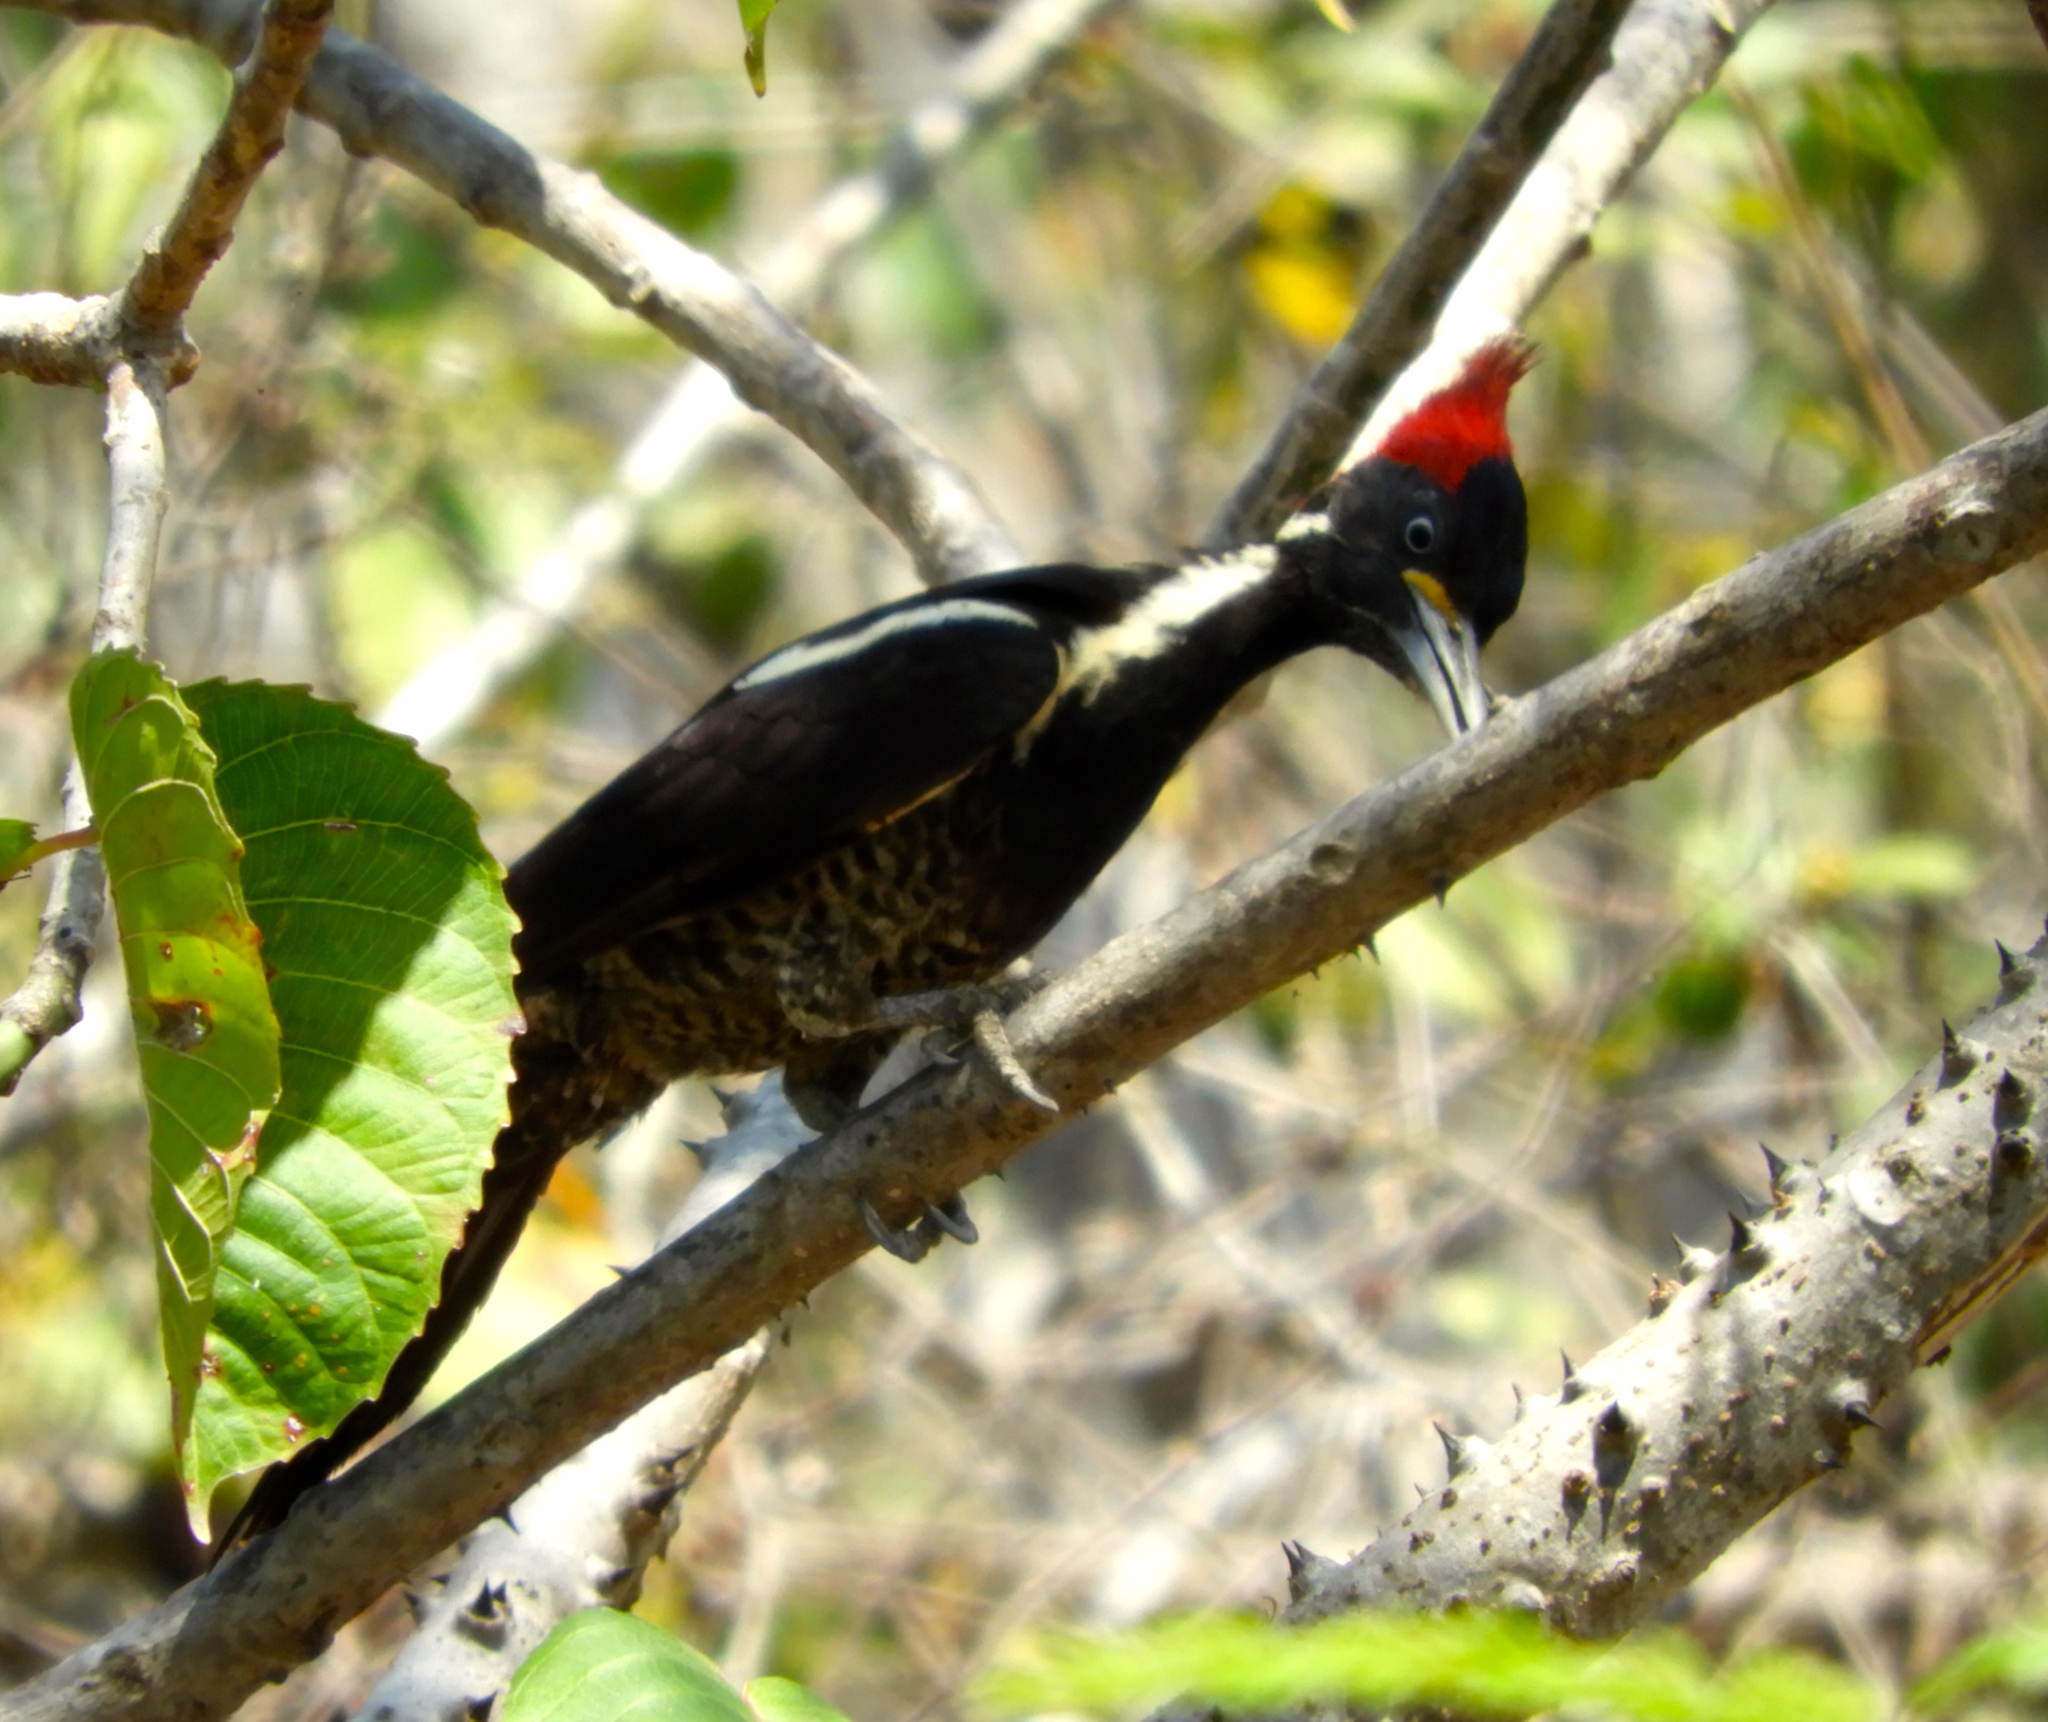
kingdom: Animalia
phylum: Chordata
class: Aves
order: Piciformes
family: Picidae
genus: Dryocopus
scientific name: Dryocopus lineatus
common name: Lineated woodpecker
